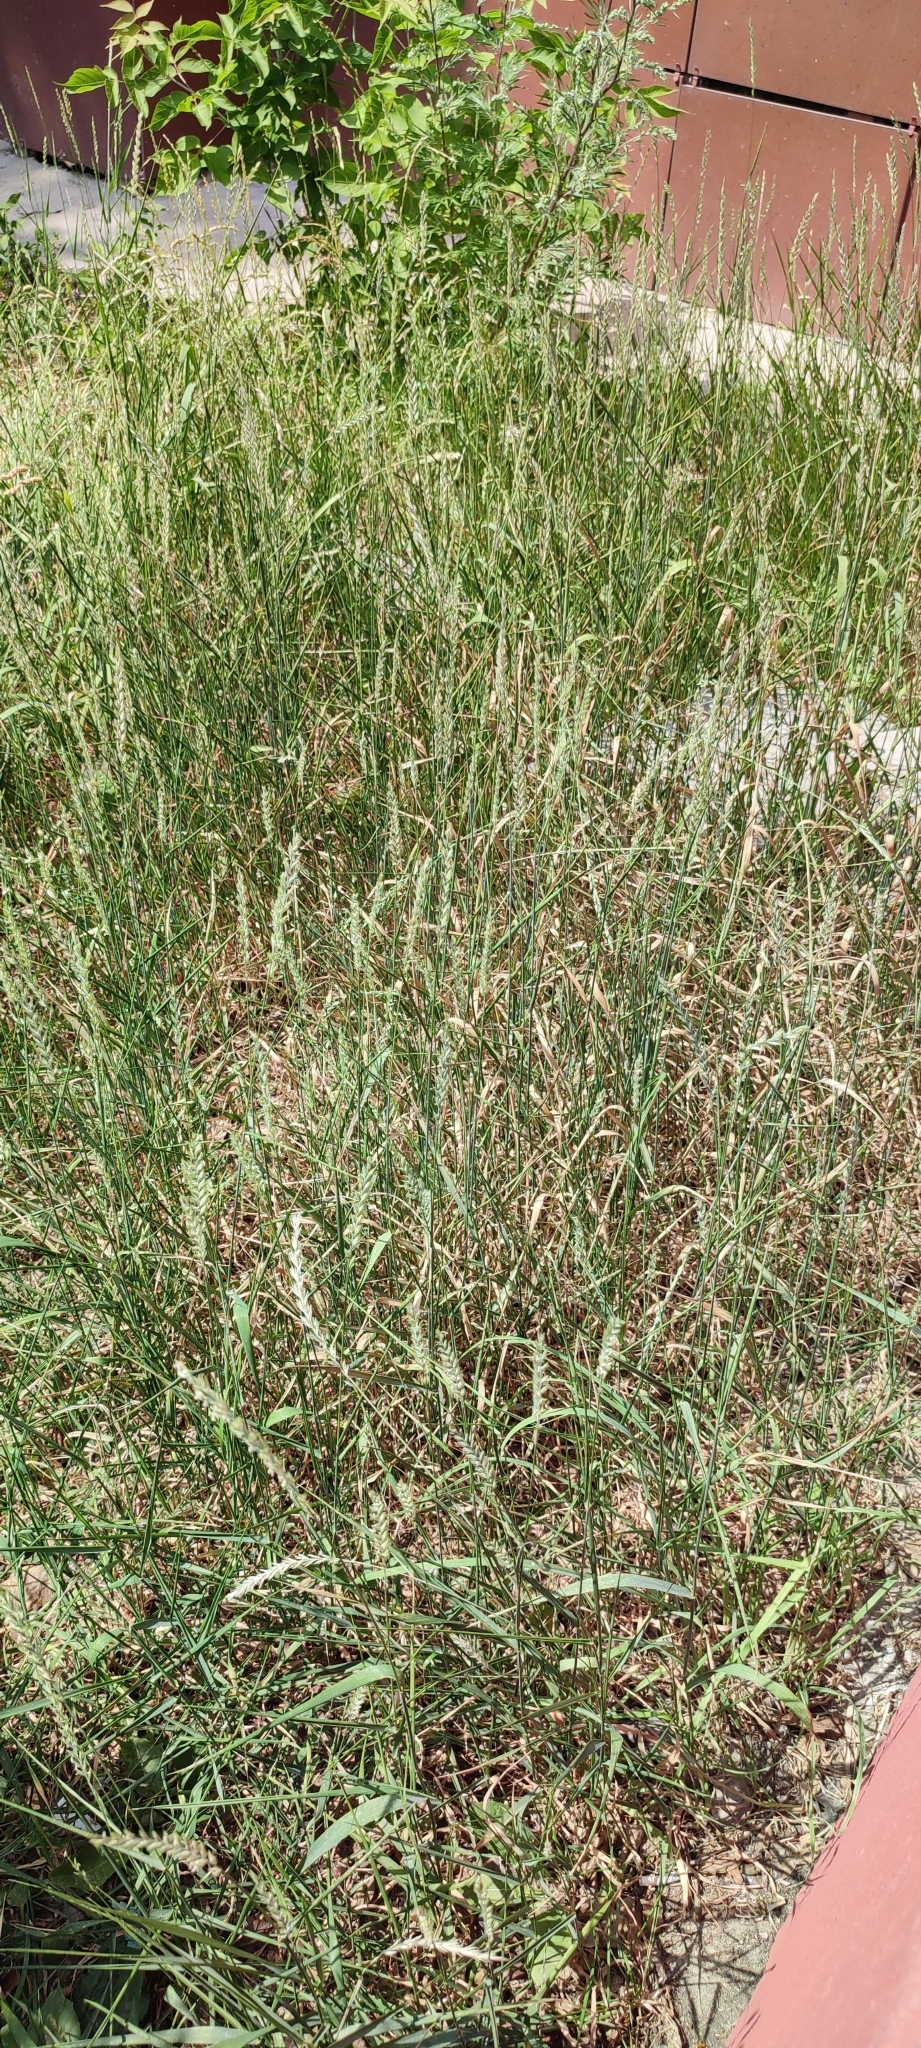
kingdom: Plantae
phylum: Tracheophyta
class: Liliopsida
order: Poales
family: Poaceae
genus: Elymus
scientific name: Elymus repens
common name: Quackgrass
